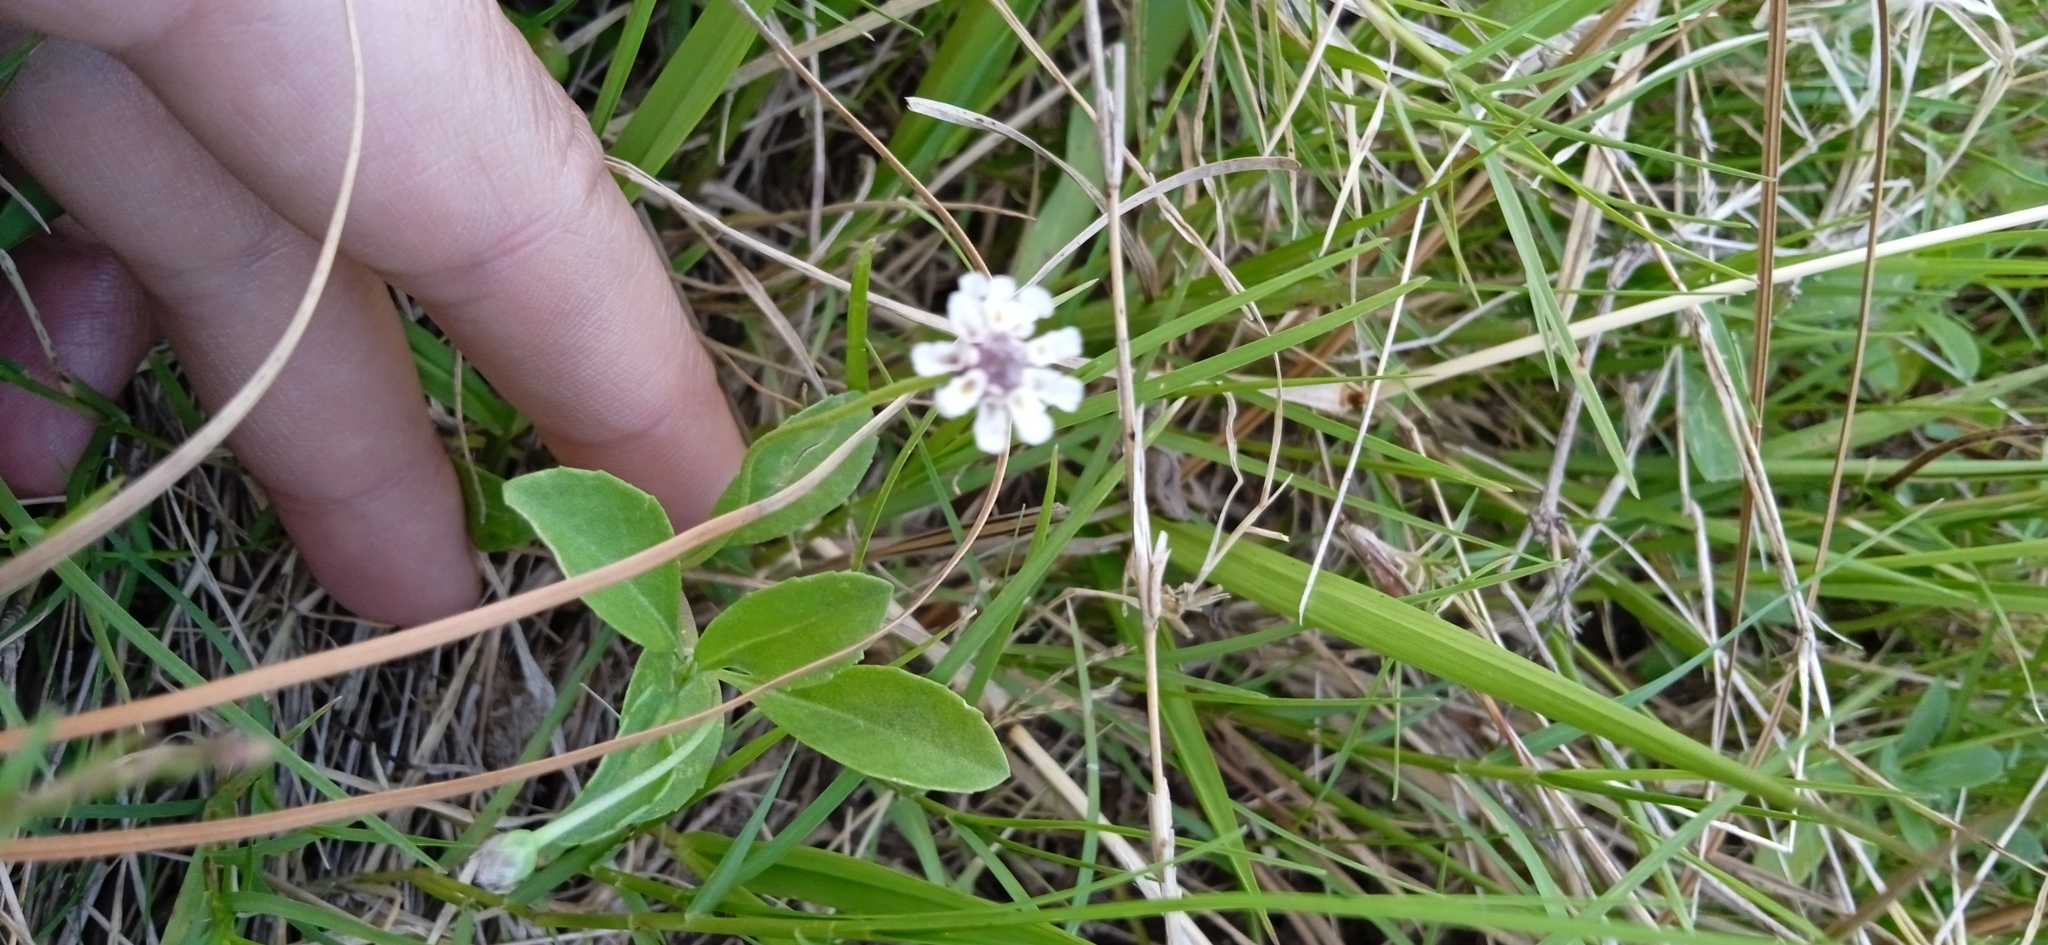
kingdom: Plantae
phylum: Tracheophyta
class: Magnoliopsida
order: Lamiales
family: Verbenaceae
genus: Phyla
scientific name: Phyla nodiflora
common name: Frogfruit
